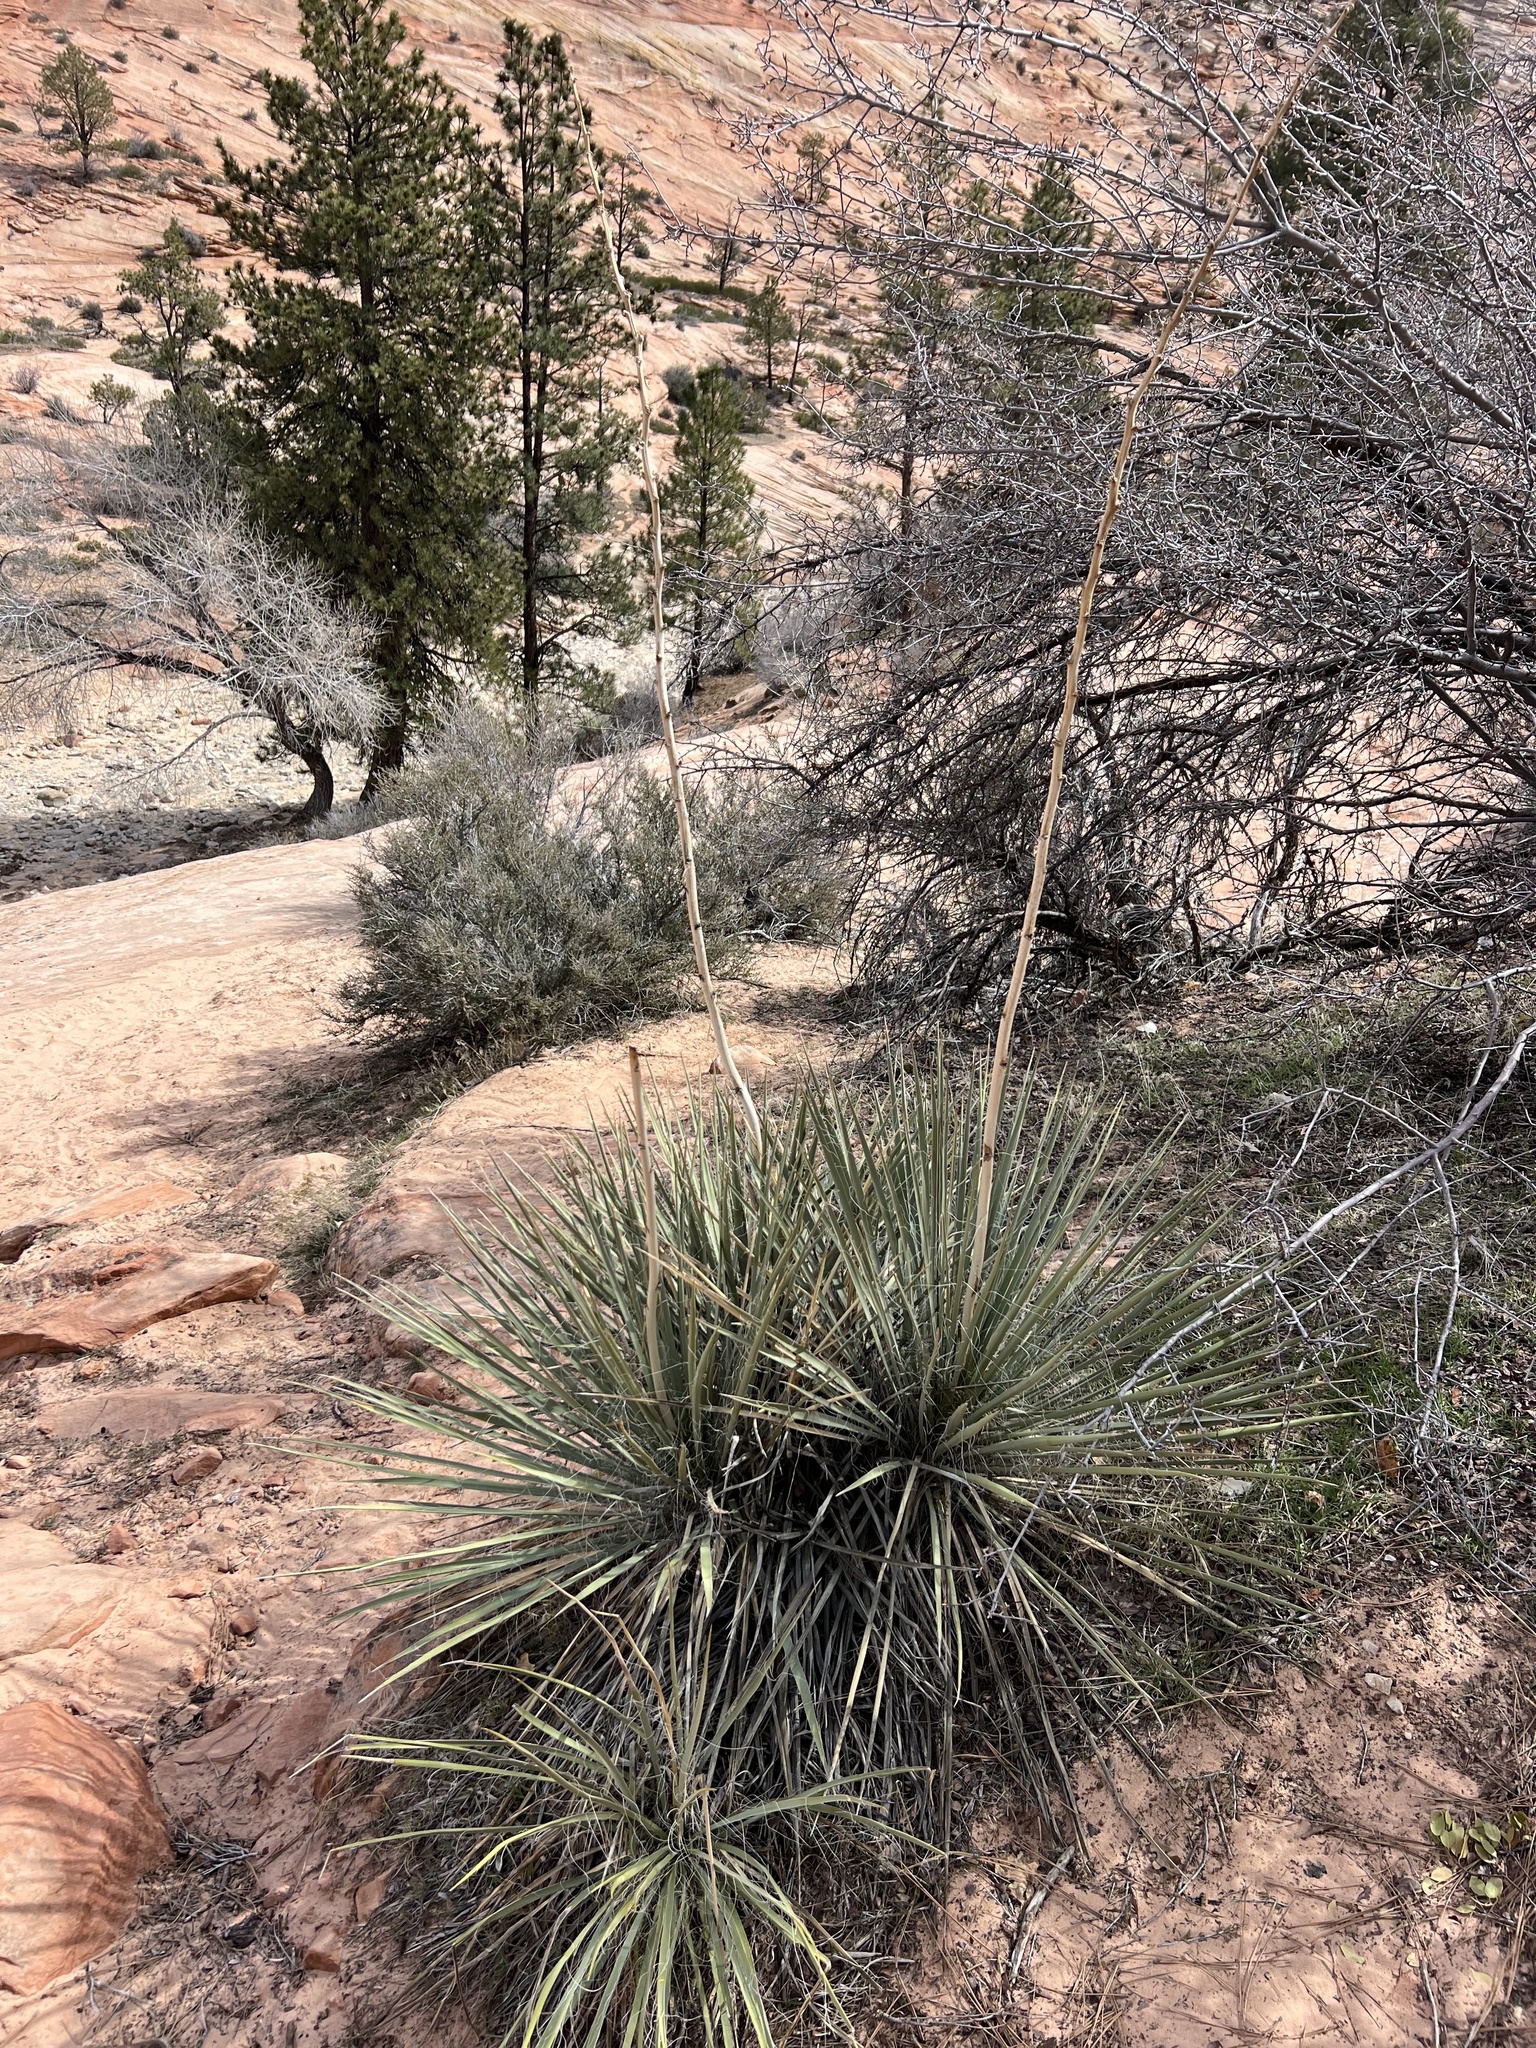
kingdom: Plantae
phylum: Tracheophyta
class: Liliopsida
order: Asparagales
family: Asparagaceae
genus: Yucca
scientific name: Yucca angustissima
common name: Narrowleaf yucca
